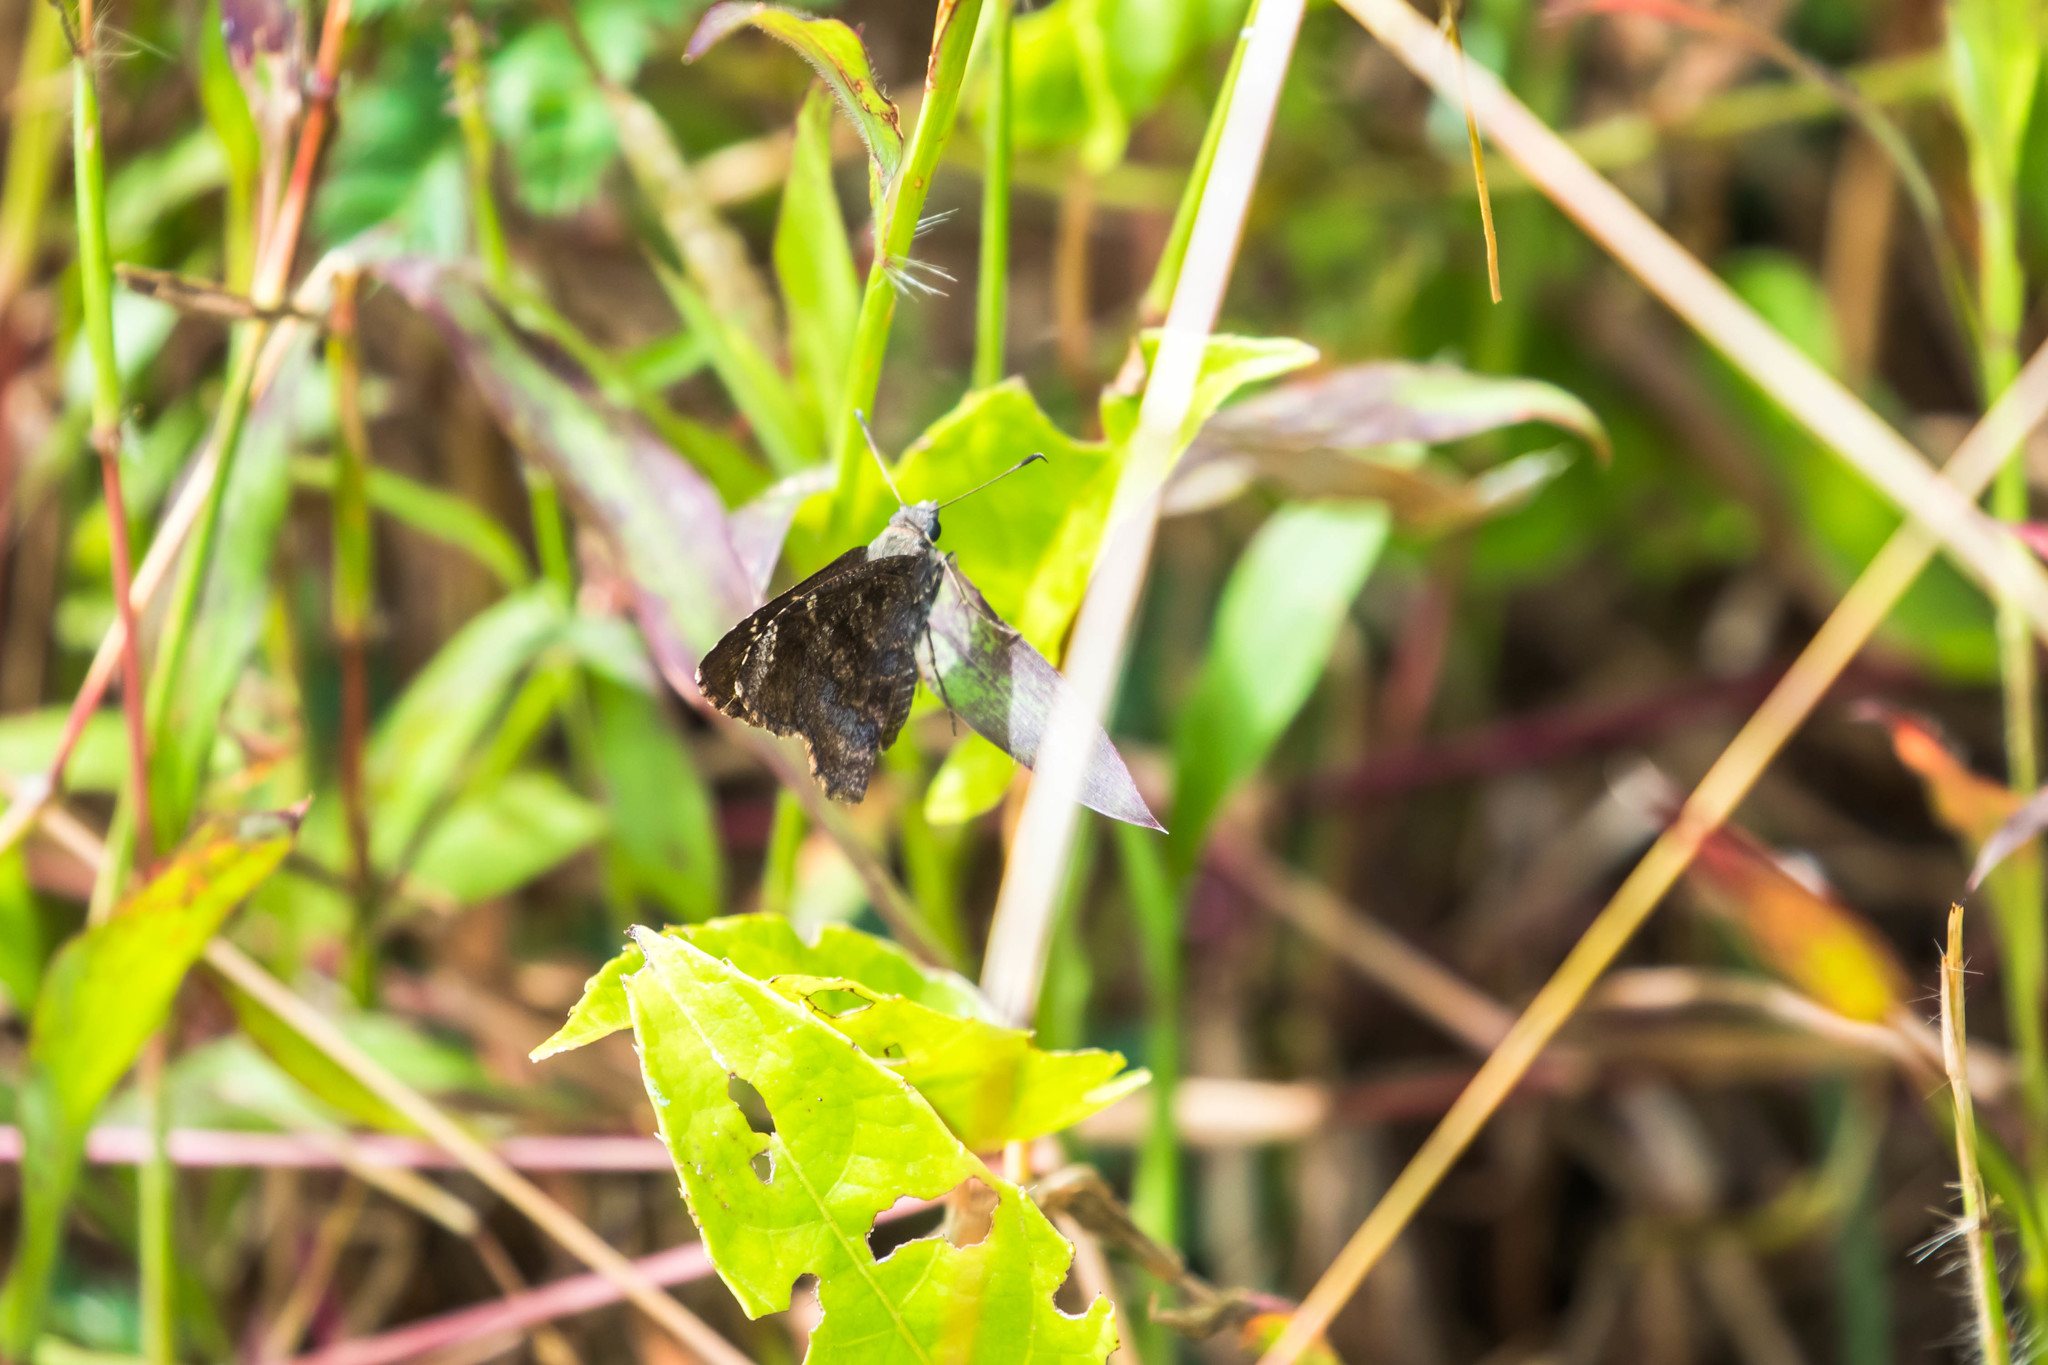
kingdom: Animalia
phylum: Arthropoda
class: Insecta
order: Lepidoptera
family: Hesperiidae
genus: Caicella
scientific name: Caicella calchas
